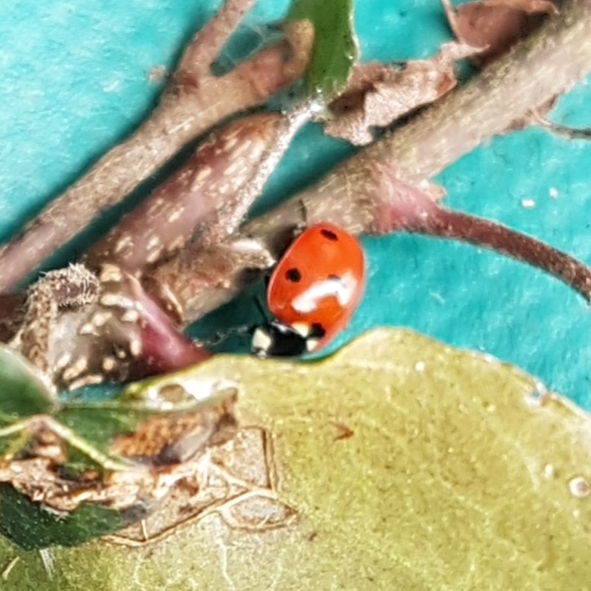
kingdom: Animalia
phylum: Arthropoda
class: Insecta
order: Coleoptera
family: Coccinellidae
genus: Coccinella
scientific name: Coccinella septempunctata
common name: Sevenspotted lady beetle
